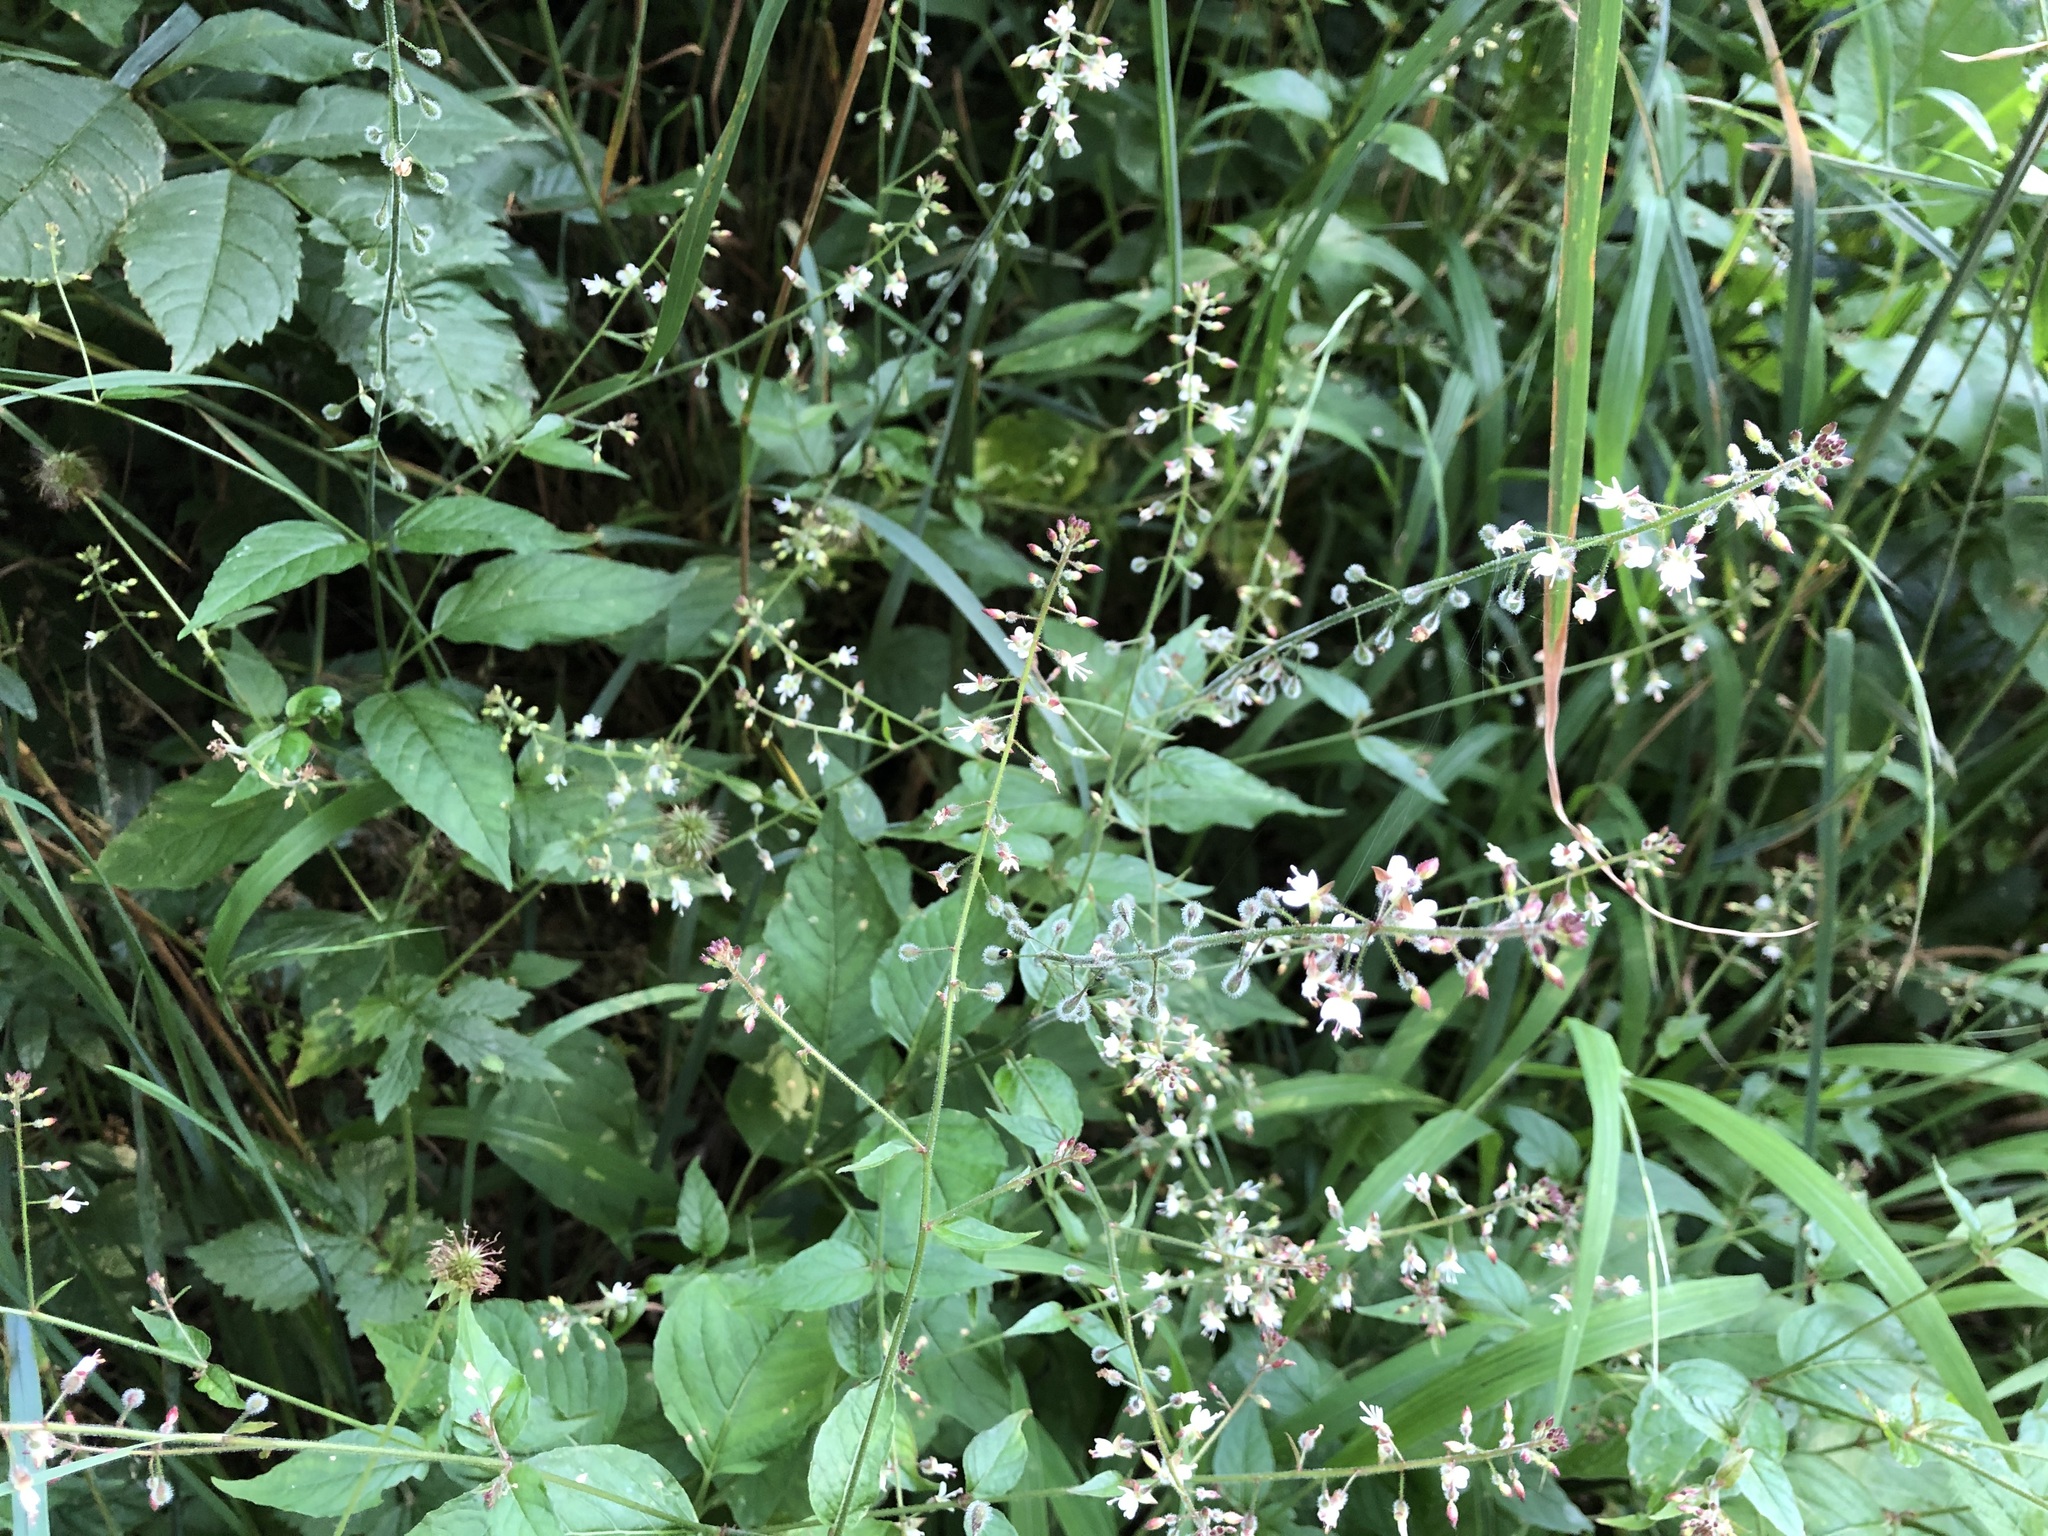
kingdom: Plantae
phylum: Tracheophyta
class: Magnoliopsida
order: Myrtales
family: Onagraceae
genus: Circaea
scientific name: Circaea lutetiana
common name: Enchanter's-nightshade
